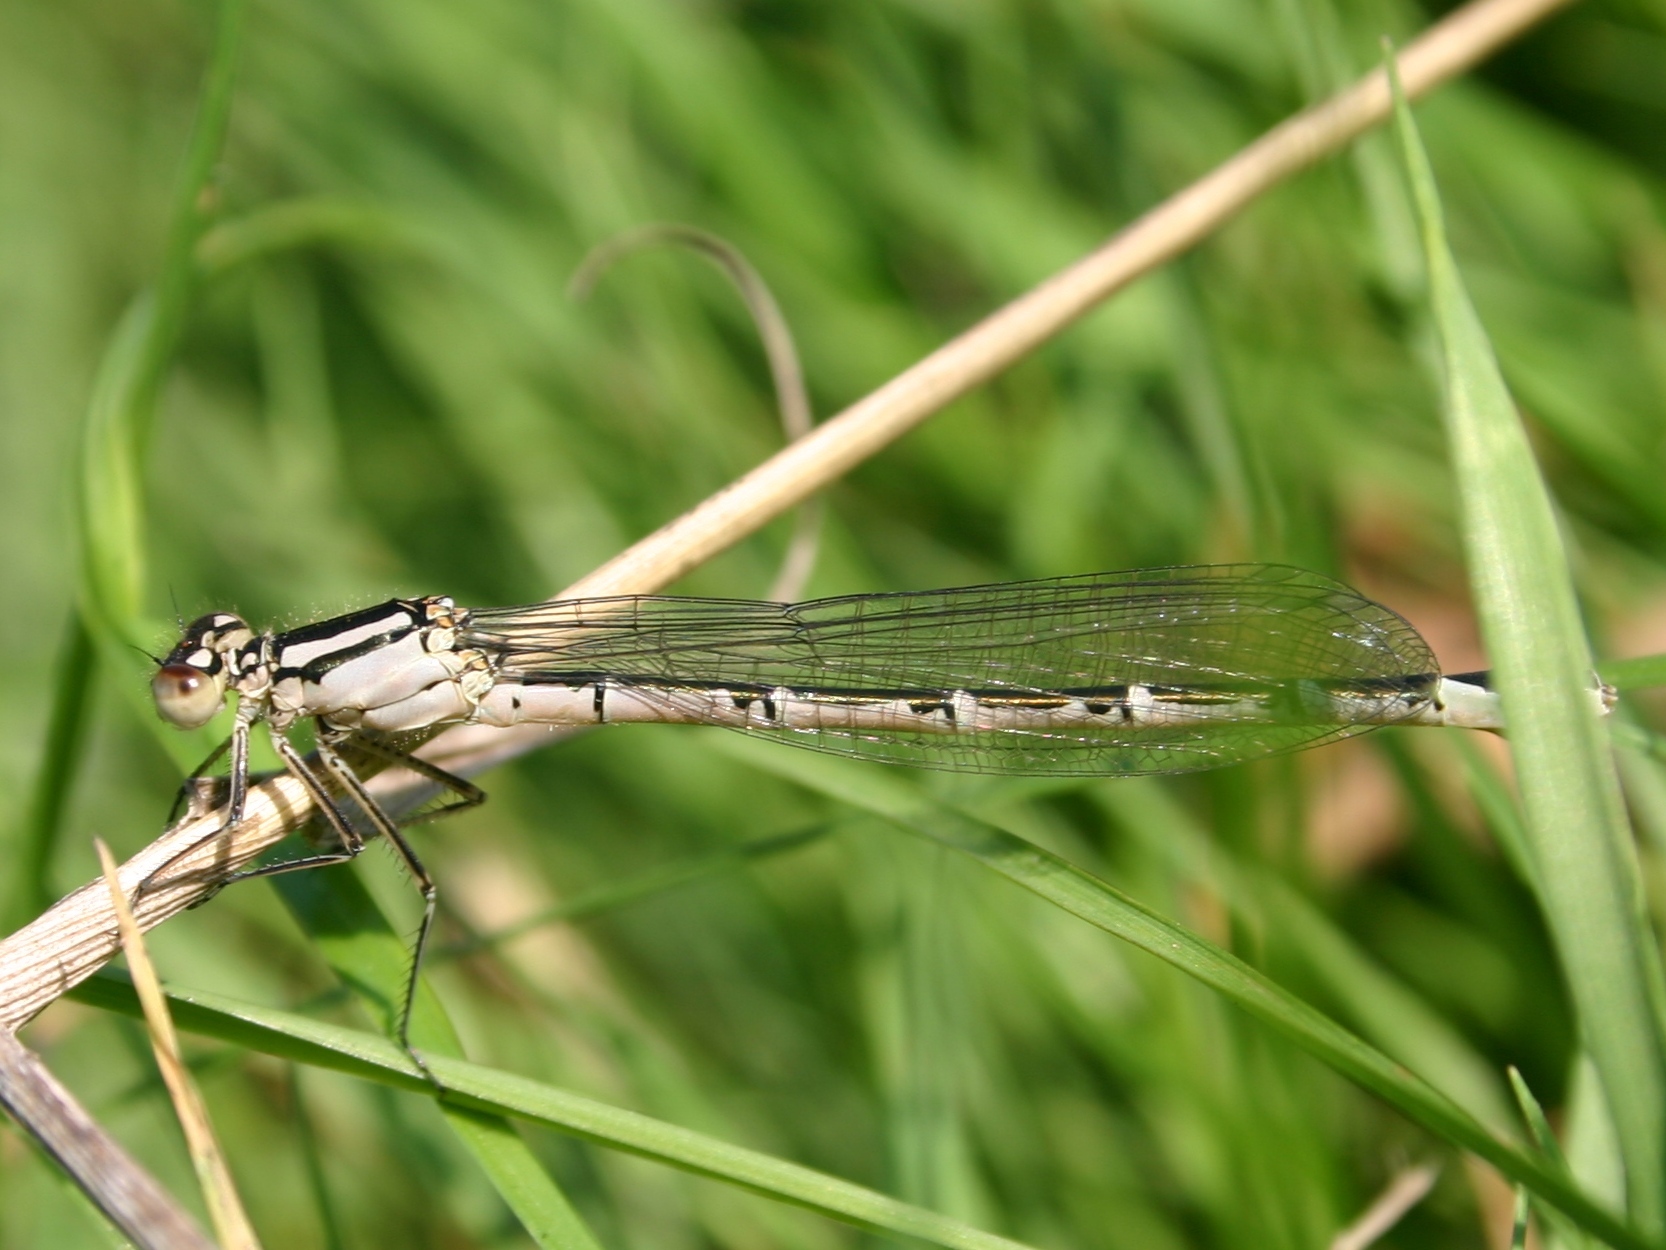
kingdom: Animalia
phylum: Arthropoda
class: Insecta
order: Odonata
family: Coenagrionidae
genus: Enallagma
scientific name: Enallagma cyathigerum
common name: Common blue damselfly
